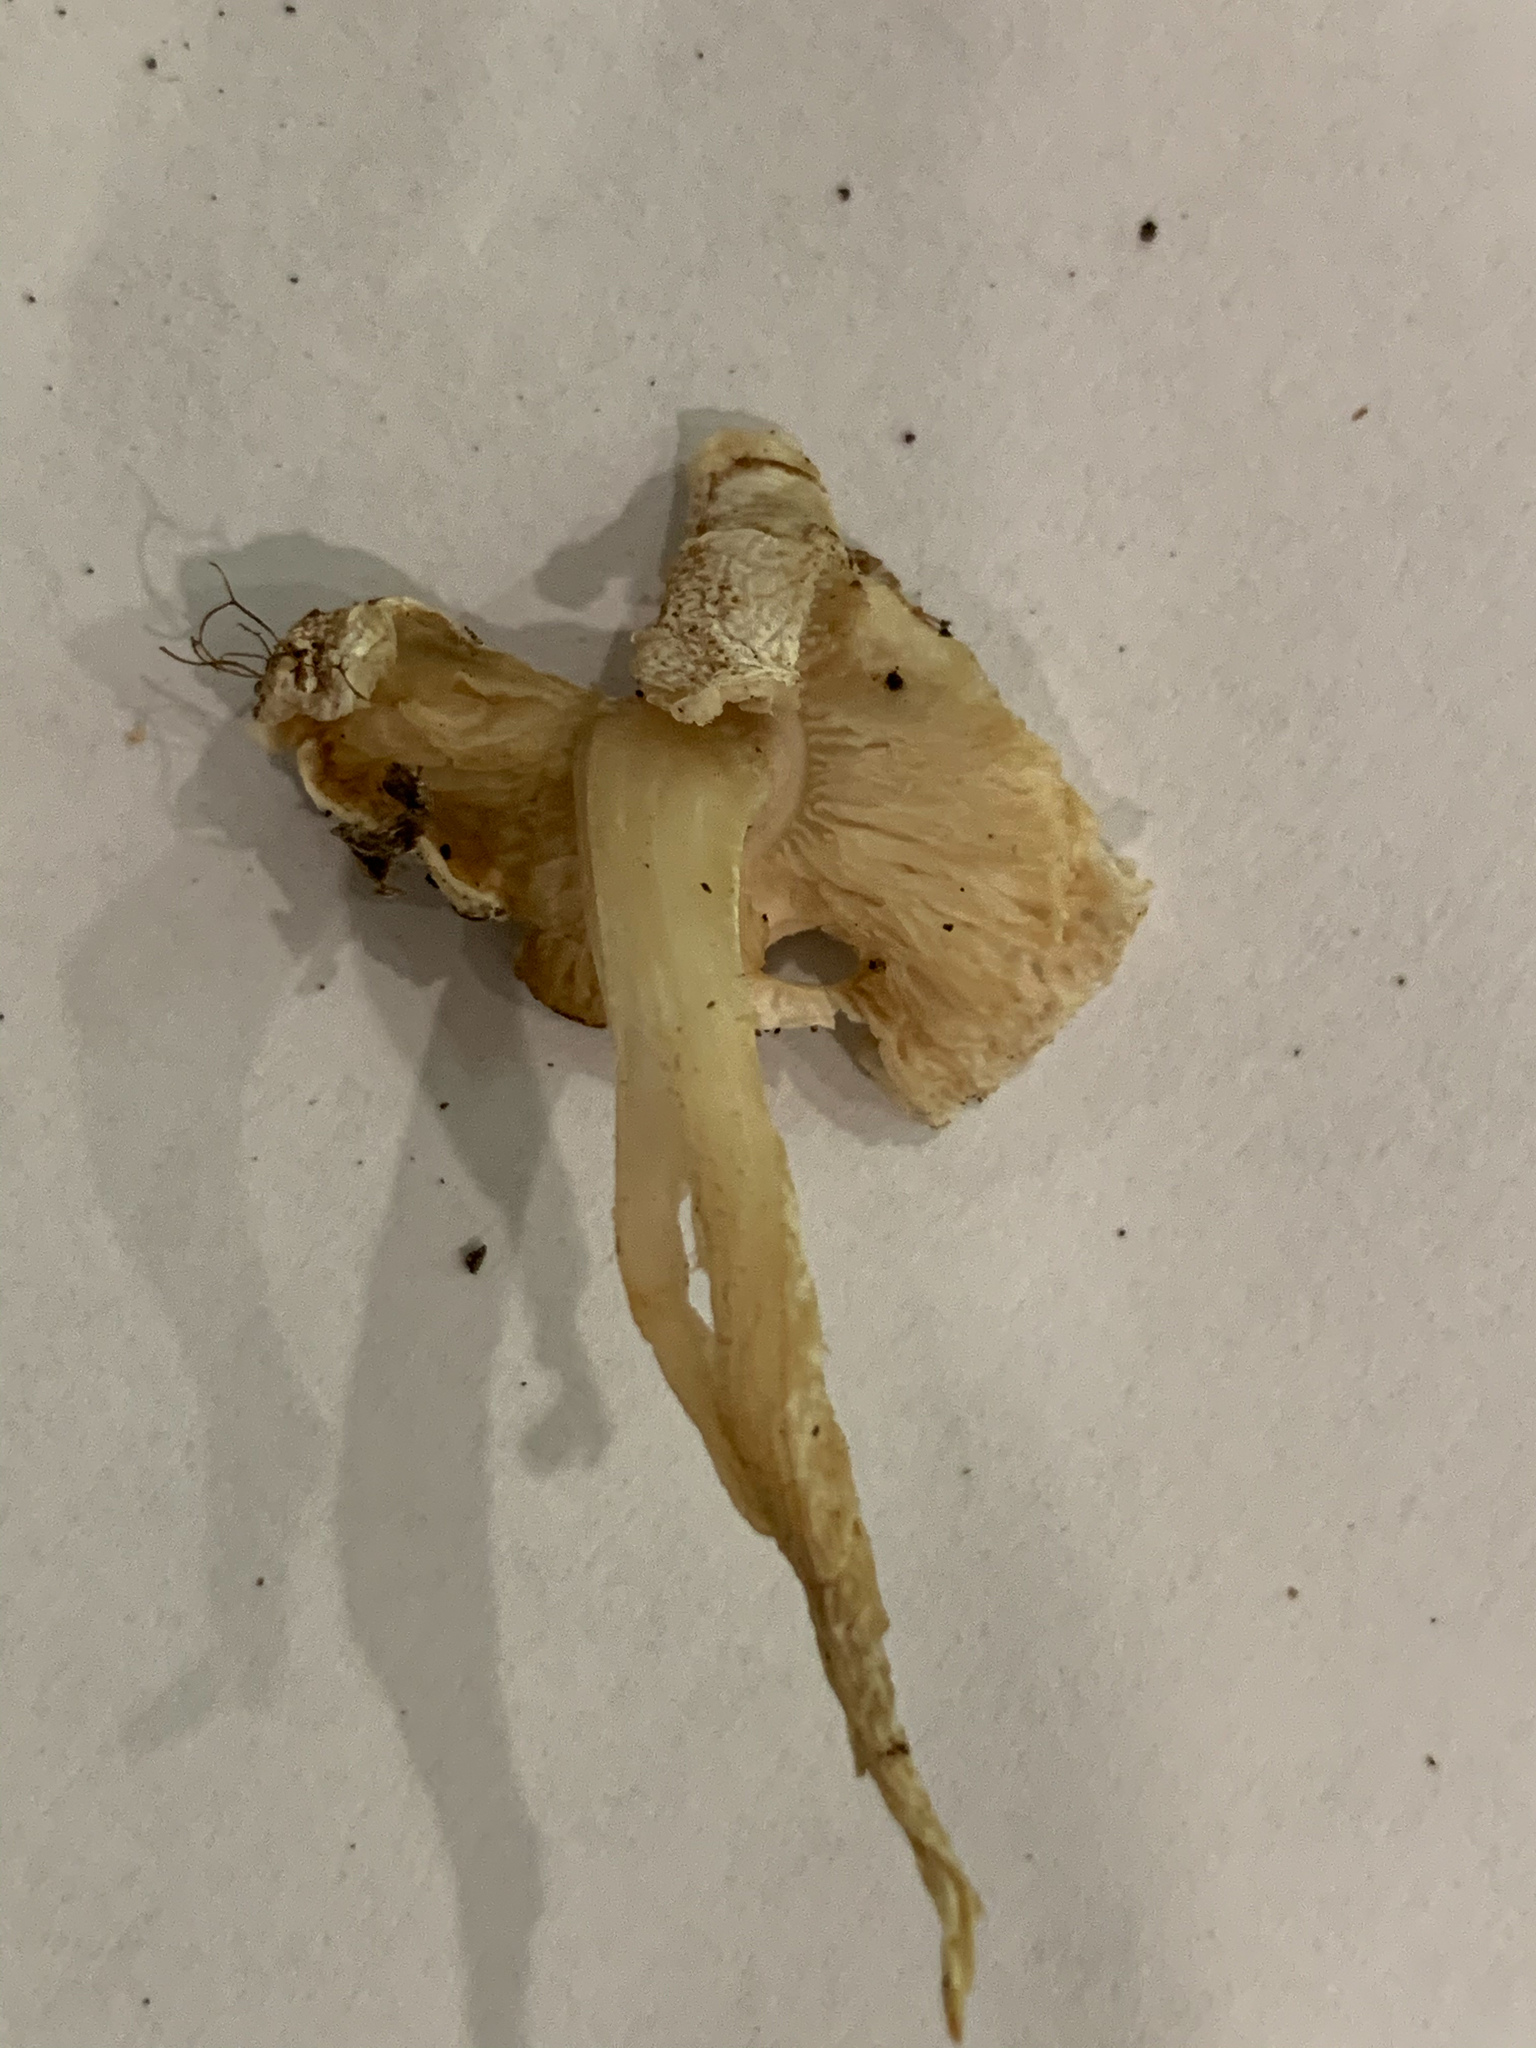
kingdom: Fungi
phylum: Basidiomycota
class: Agaricomycetes
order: Agaricales
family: Agaricaceae
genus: Echinoderma
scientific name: Echinoderma asperum
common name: Freckled dapperling
